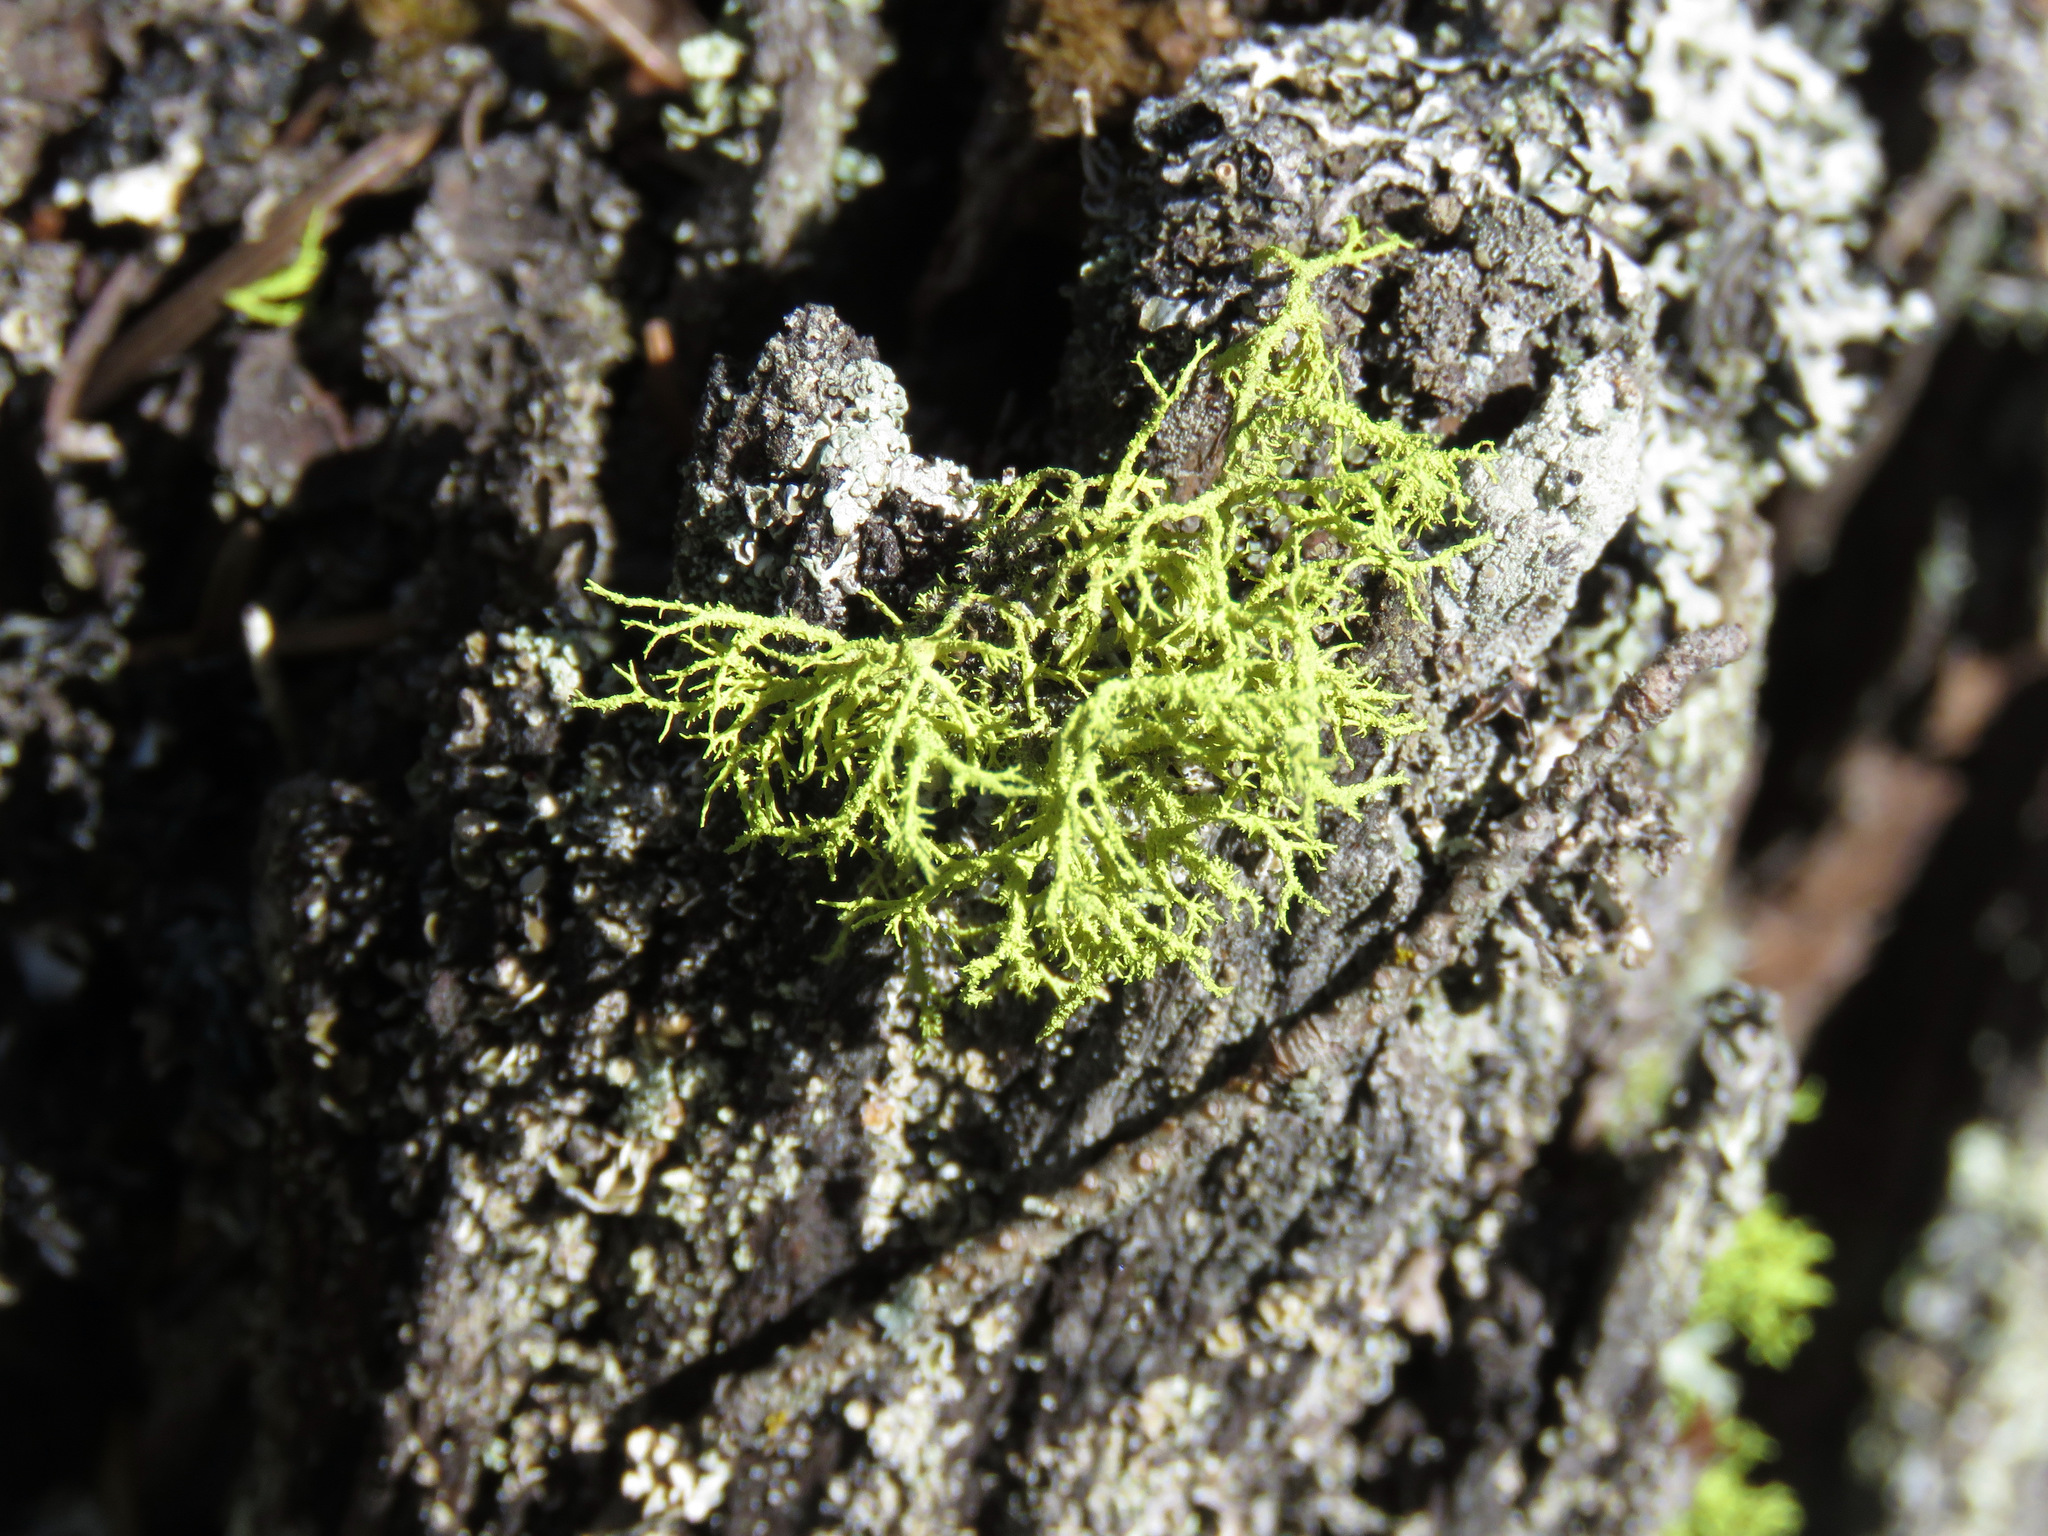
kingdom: Fungi
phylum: Ascomycota
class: Lecanoromycetes
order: Lecanorales
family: Parmeliaceae
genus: Letharia
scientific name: Letharia vulpina
